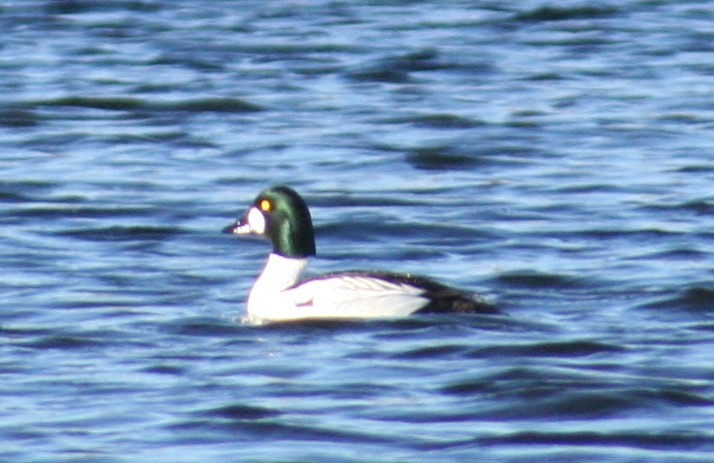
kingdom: Animalia
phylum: Chordata
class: Aves
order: Anseriformes
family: Anatidae
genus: Bucephala
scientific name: Bucephala clangula
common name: Common goldeneye
